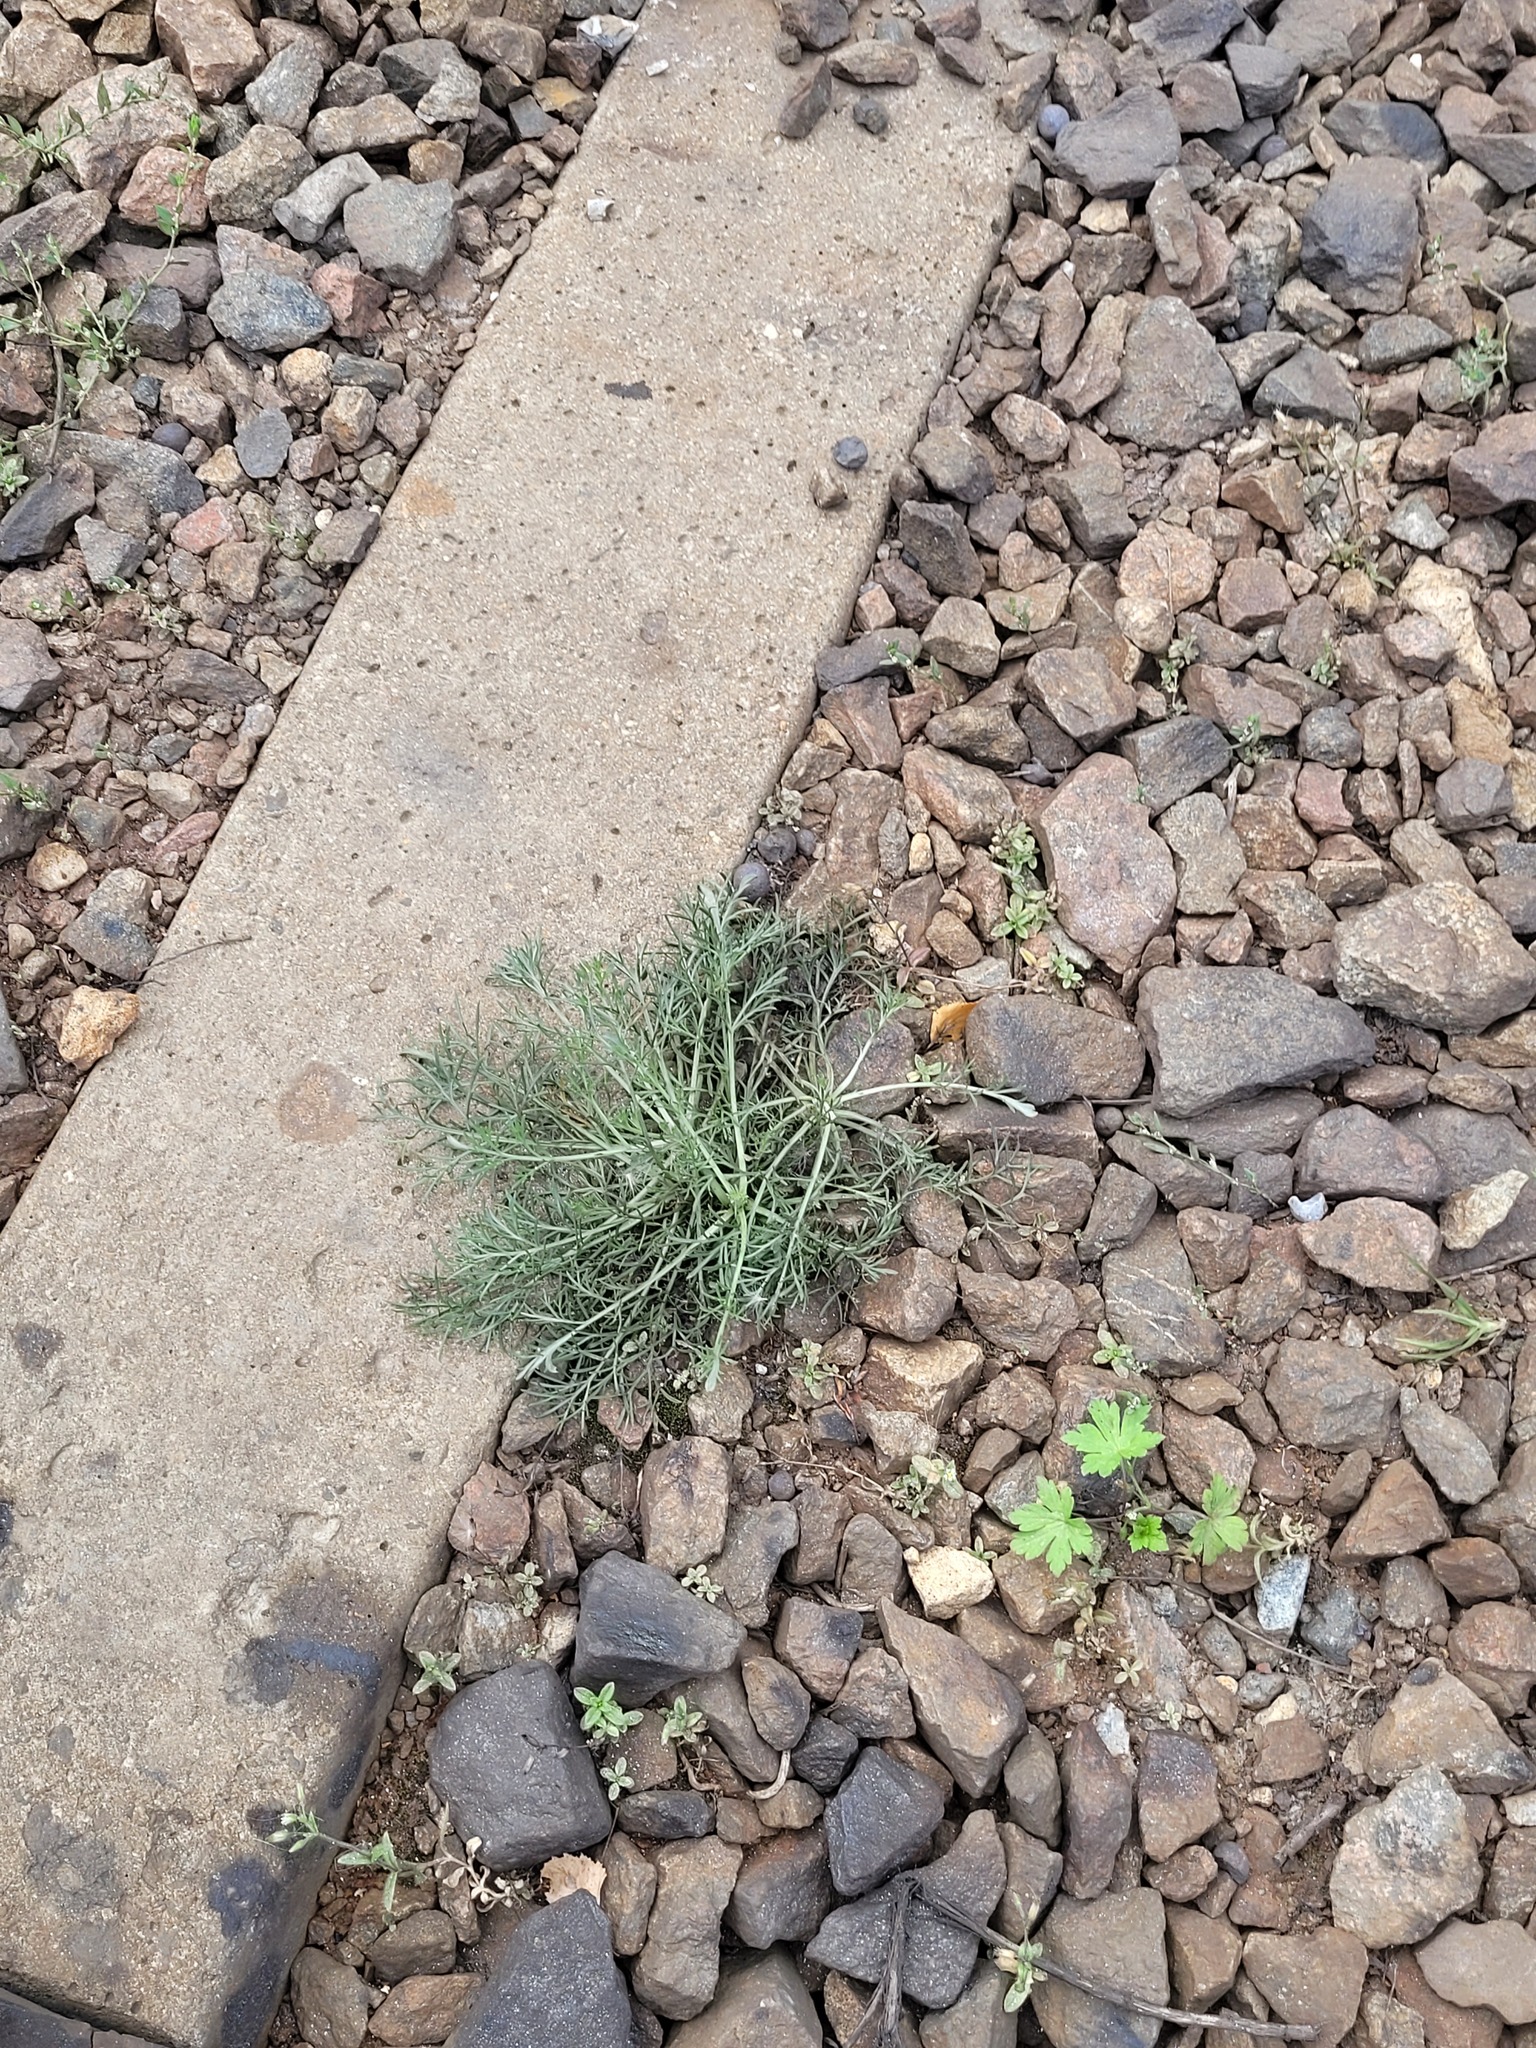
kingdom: Plantae
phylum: Tracheophyta
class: Magnoliopsida
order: Asterales
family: Asteraceae
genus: Artemisia
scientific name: Artemisia campestris
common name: Field wormwood
